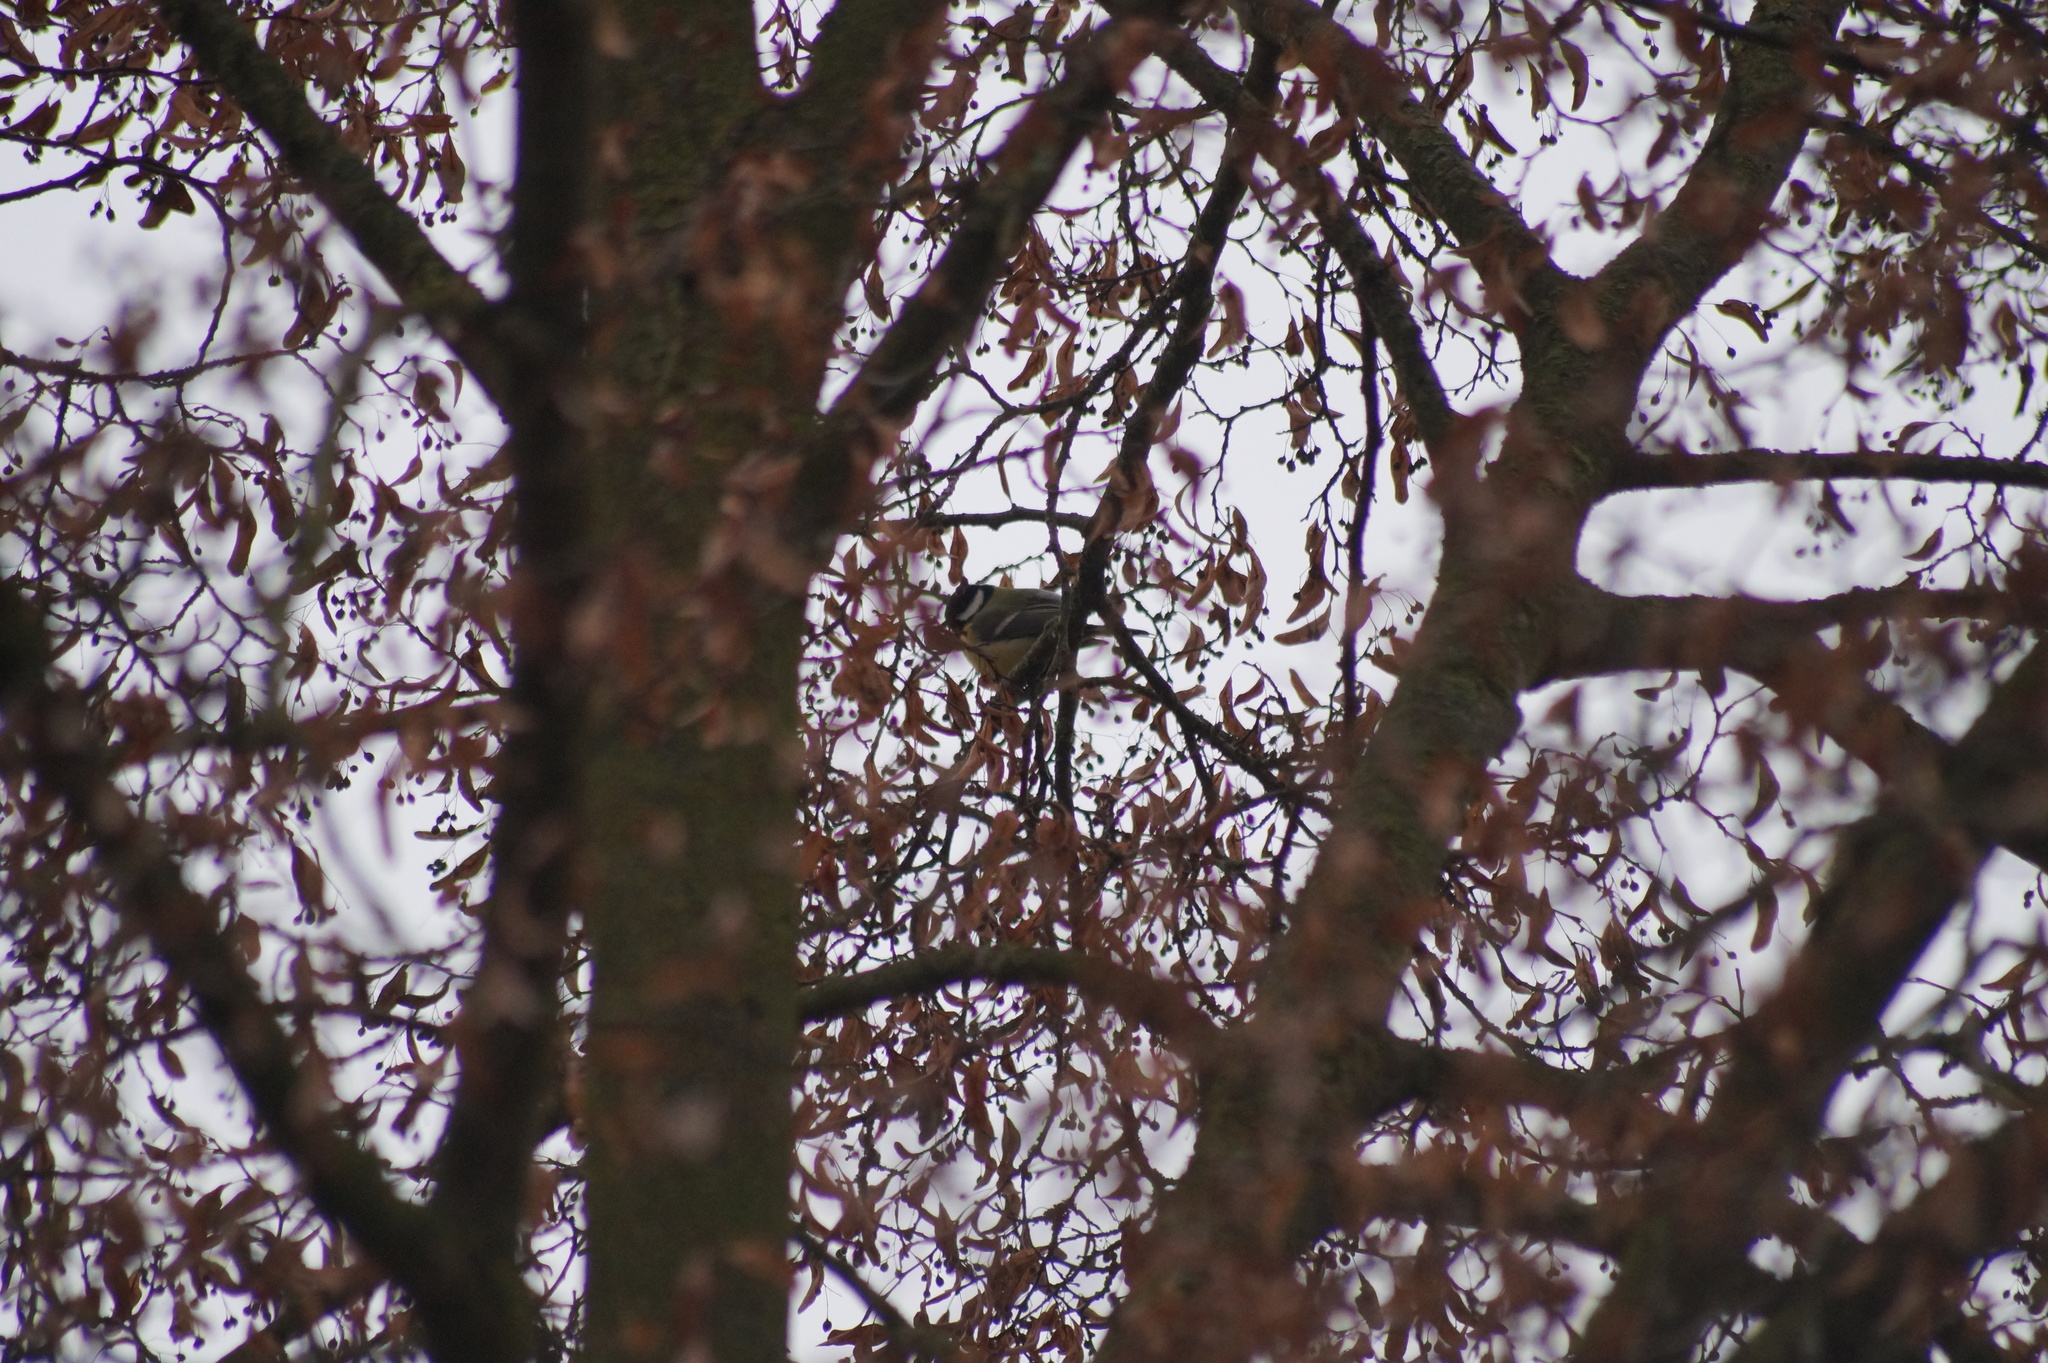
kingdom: Animalia
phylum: Chordata
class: Aves
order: Passeriformes
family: Paridae
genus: Parus
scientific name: Parus major
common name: Great tit
